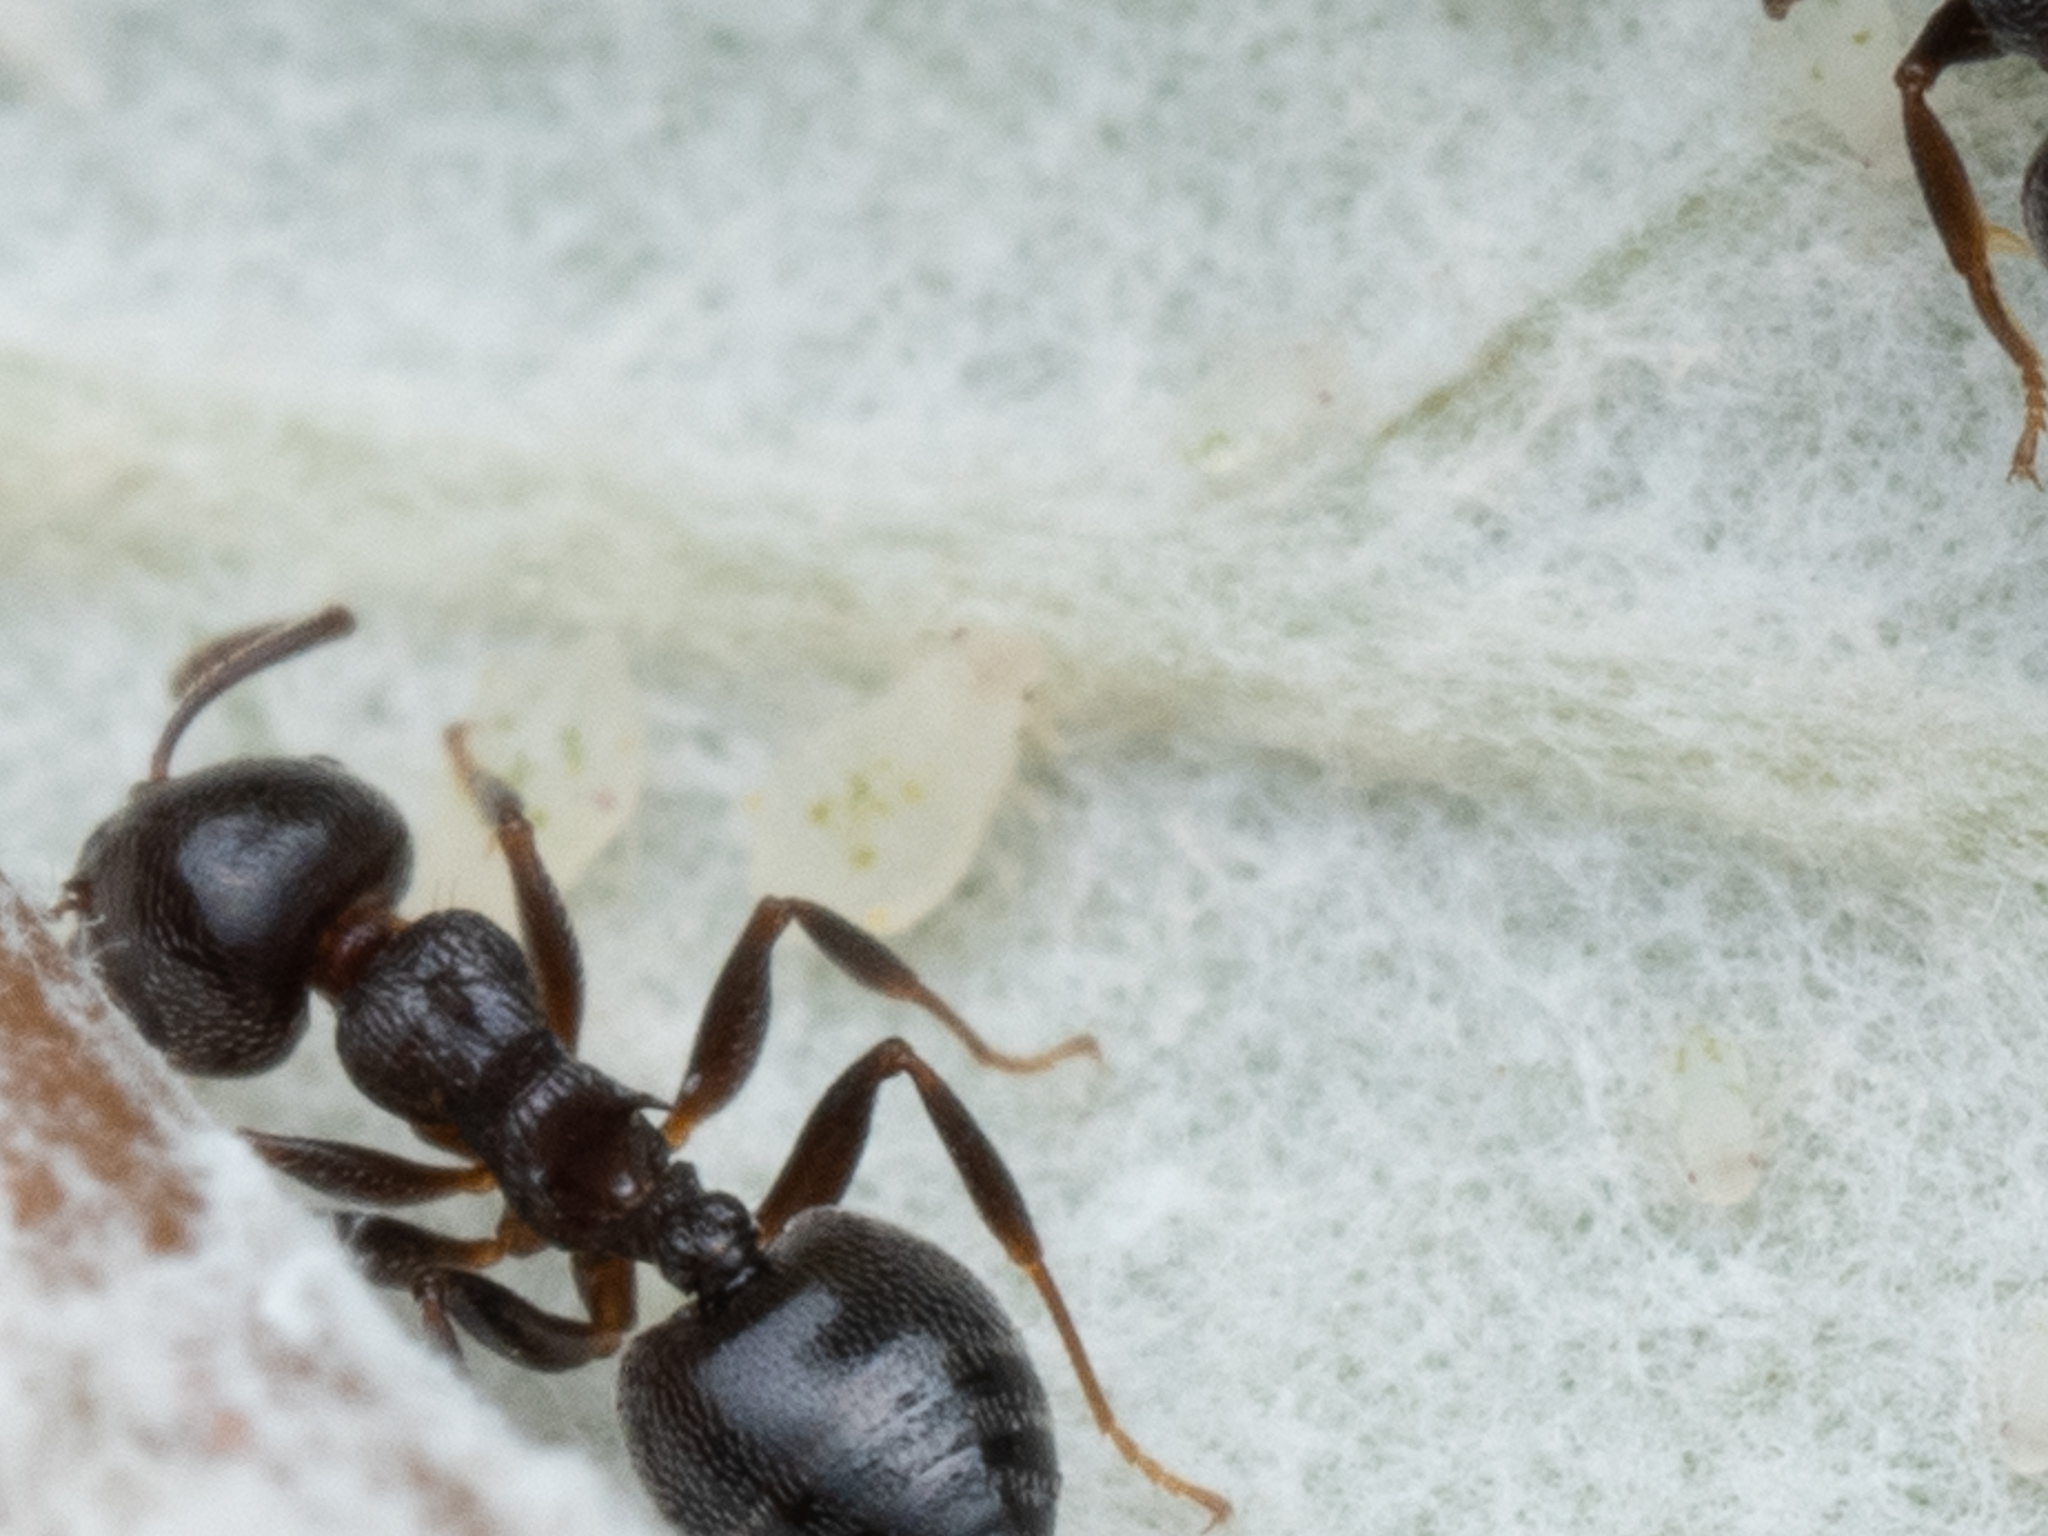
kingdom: Animalia
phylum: Arthropoda
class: Insecta
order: Hemiptera
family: Aphididae
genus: Chaitophorus
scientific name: Chaitophorus populialbae
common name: Aphid
